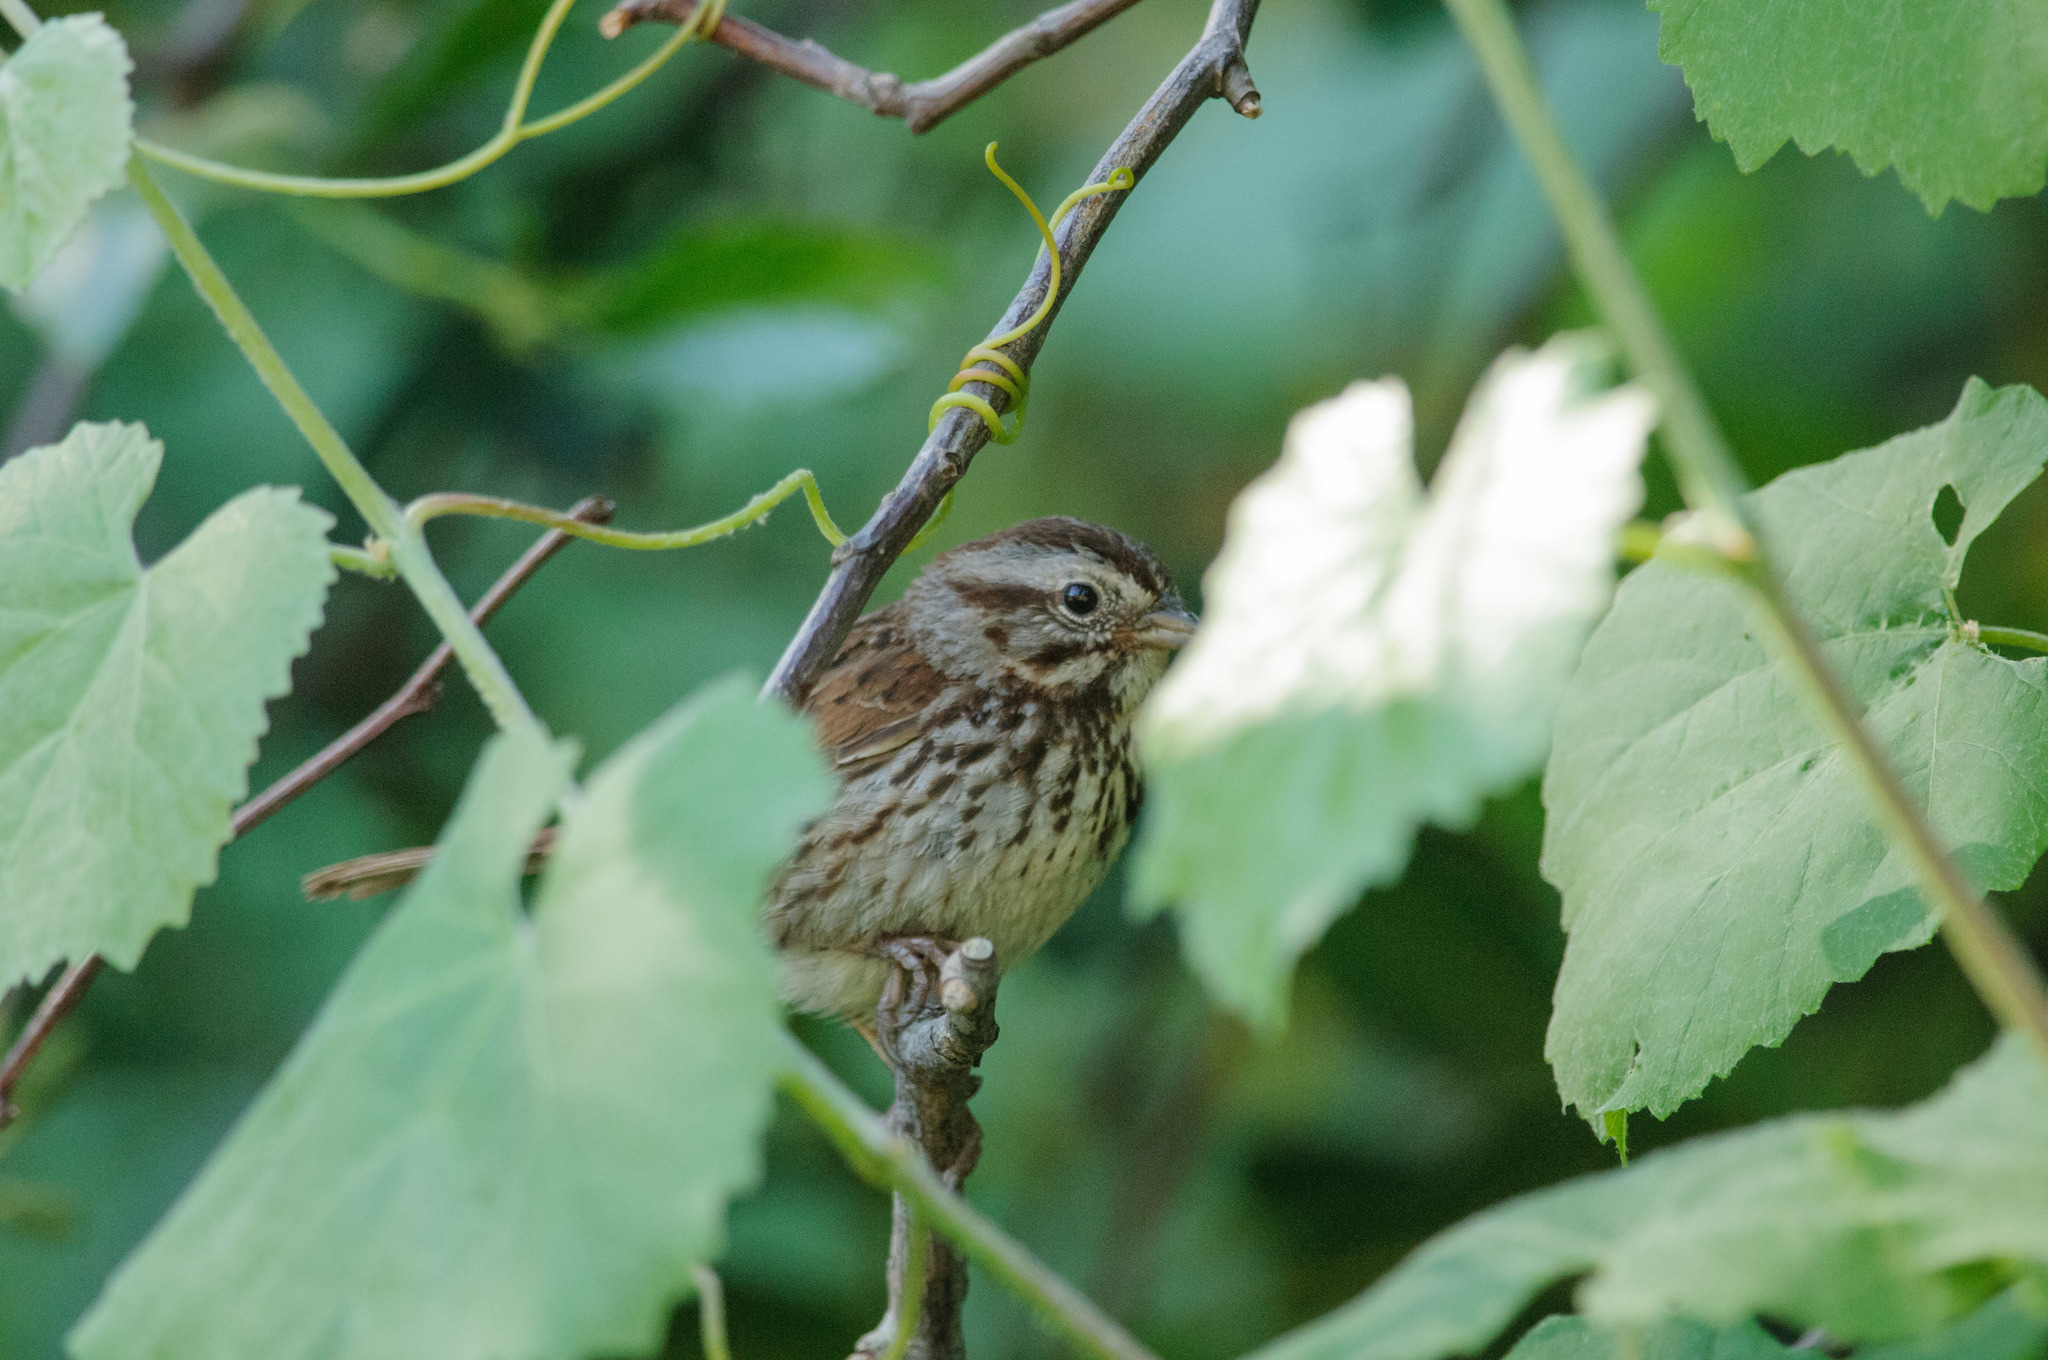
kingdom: Animalia
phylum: Chordata
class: Aves
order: Passeriformes
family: Passerellidae
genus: Melospiza
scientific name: Melospiza melodia
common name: Song sparrow
